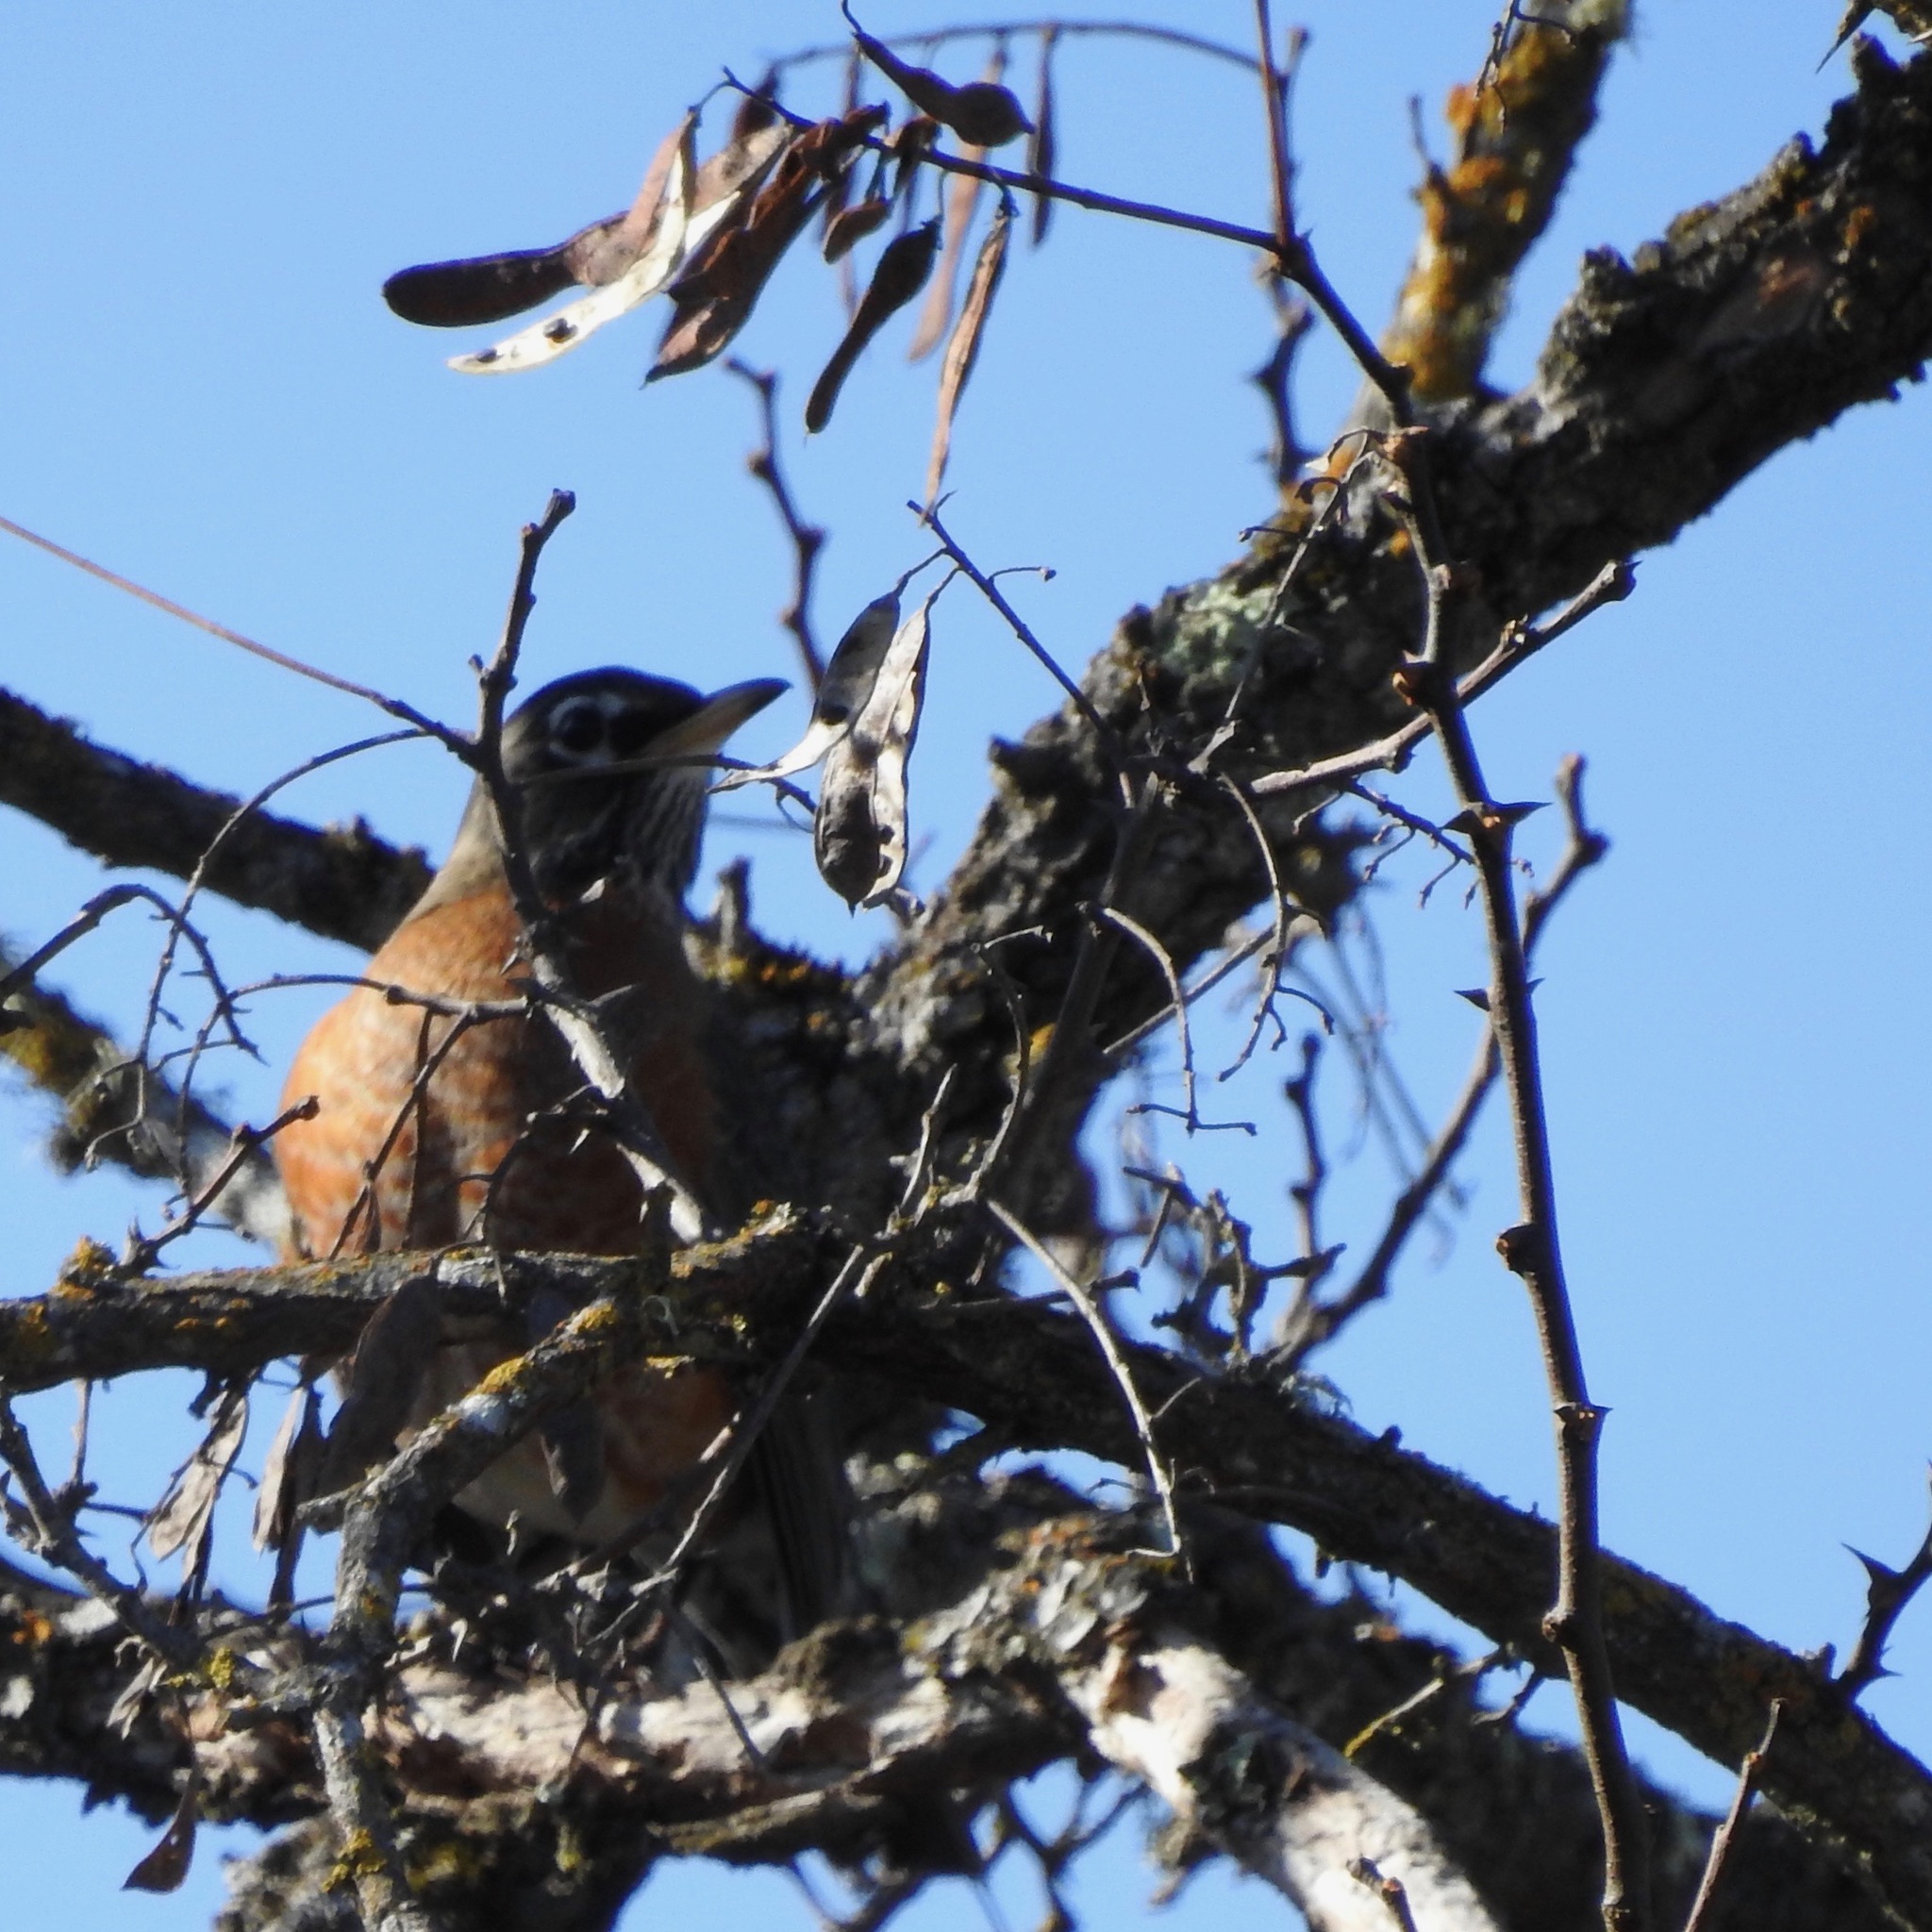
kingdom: Animalia
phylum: Chordata
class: Aves
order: Passeriformes
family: Turdidae
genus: Turdus
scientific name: Turdus migratorius
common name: American robin
